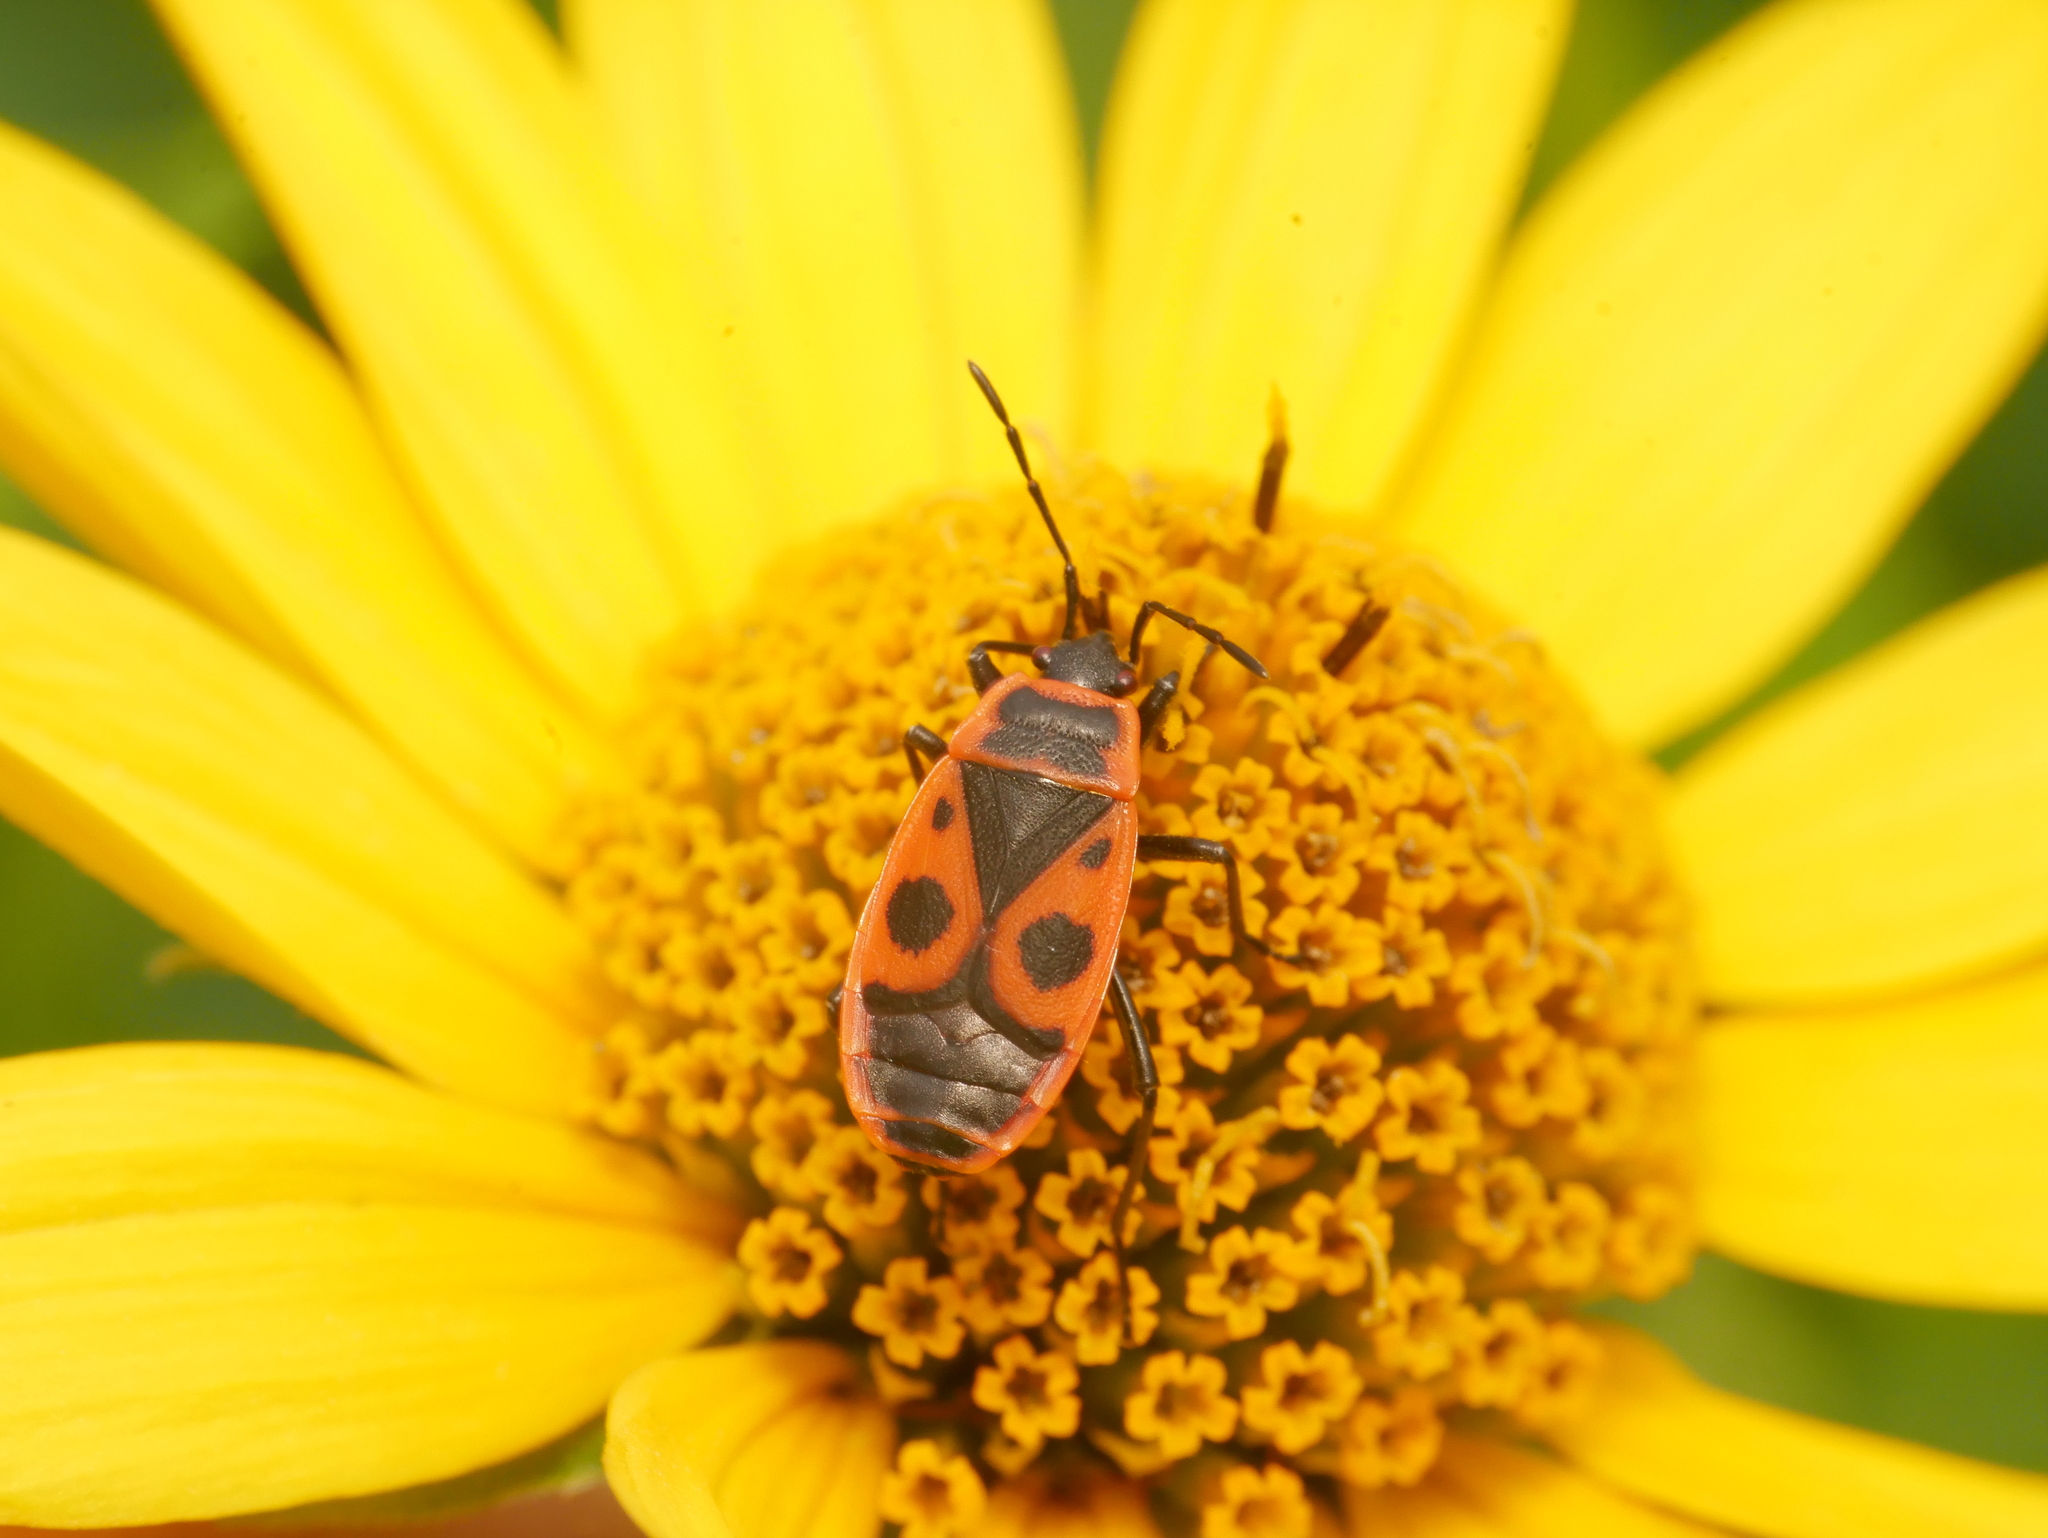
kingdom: Animalia
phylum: Arthropoda
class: Insecta
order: Hemiptera
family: Pyrrhocoridae
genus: Pyrrhocoris
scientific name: Pyrrhocoris apterus
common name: Firebug
